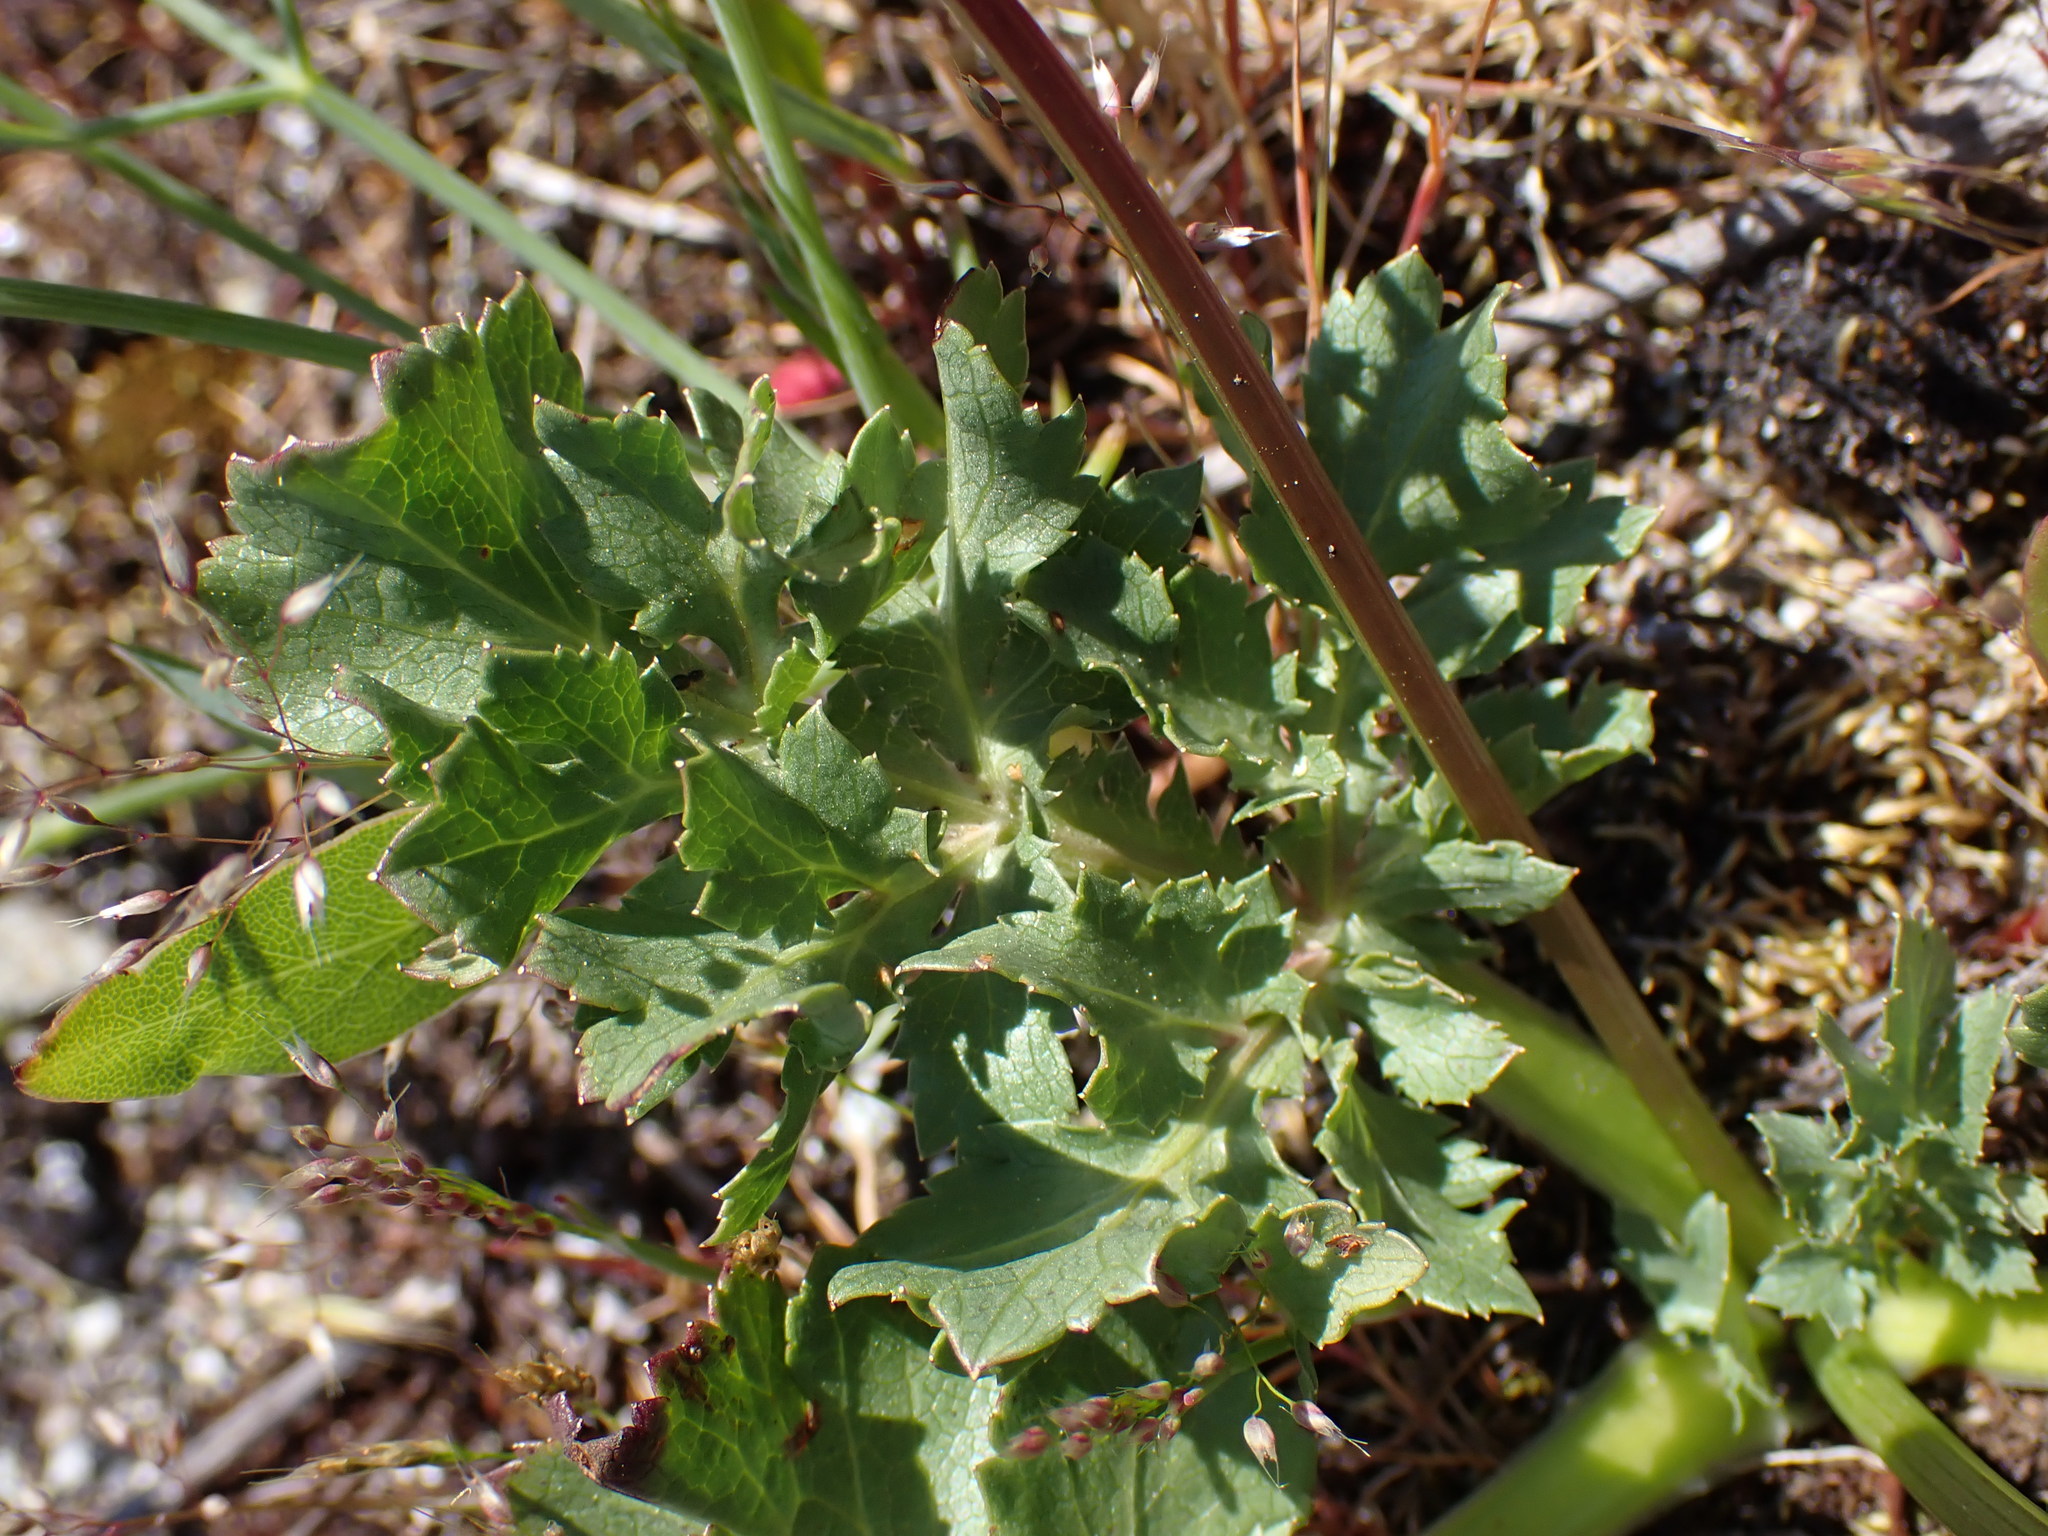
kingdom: Plantae
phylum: Tracheophyta
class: Magnoliopsida
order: Apiales
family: Apiaceae
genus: Sanicula
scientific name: Sanicula bipinnatifida
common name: Shoe-buttons
